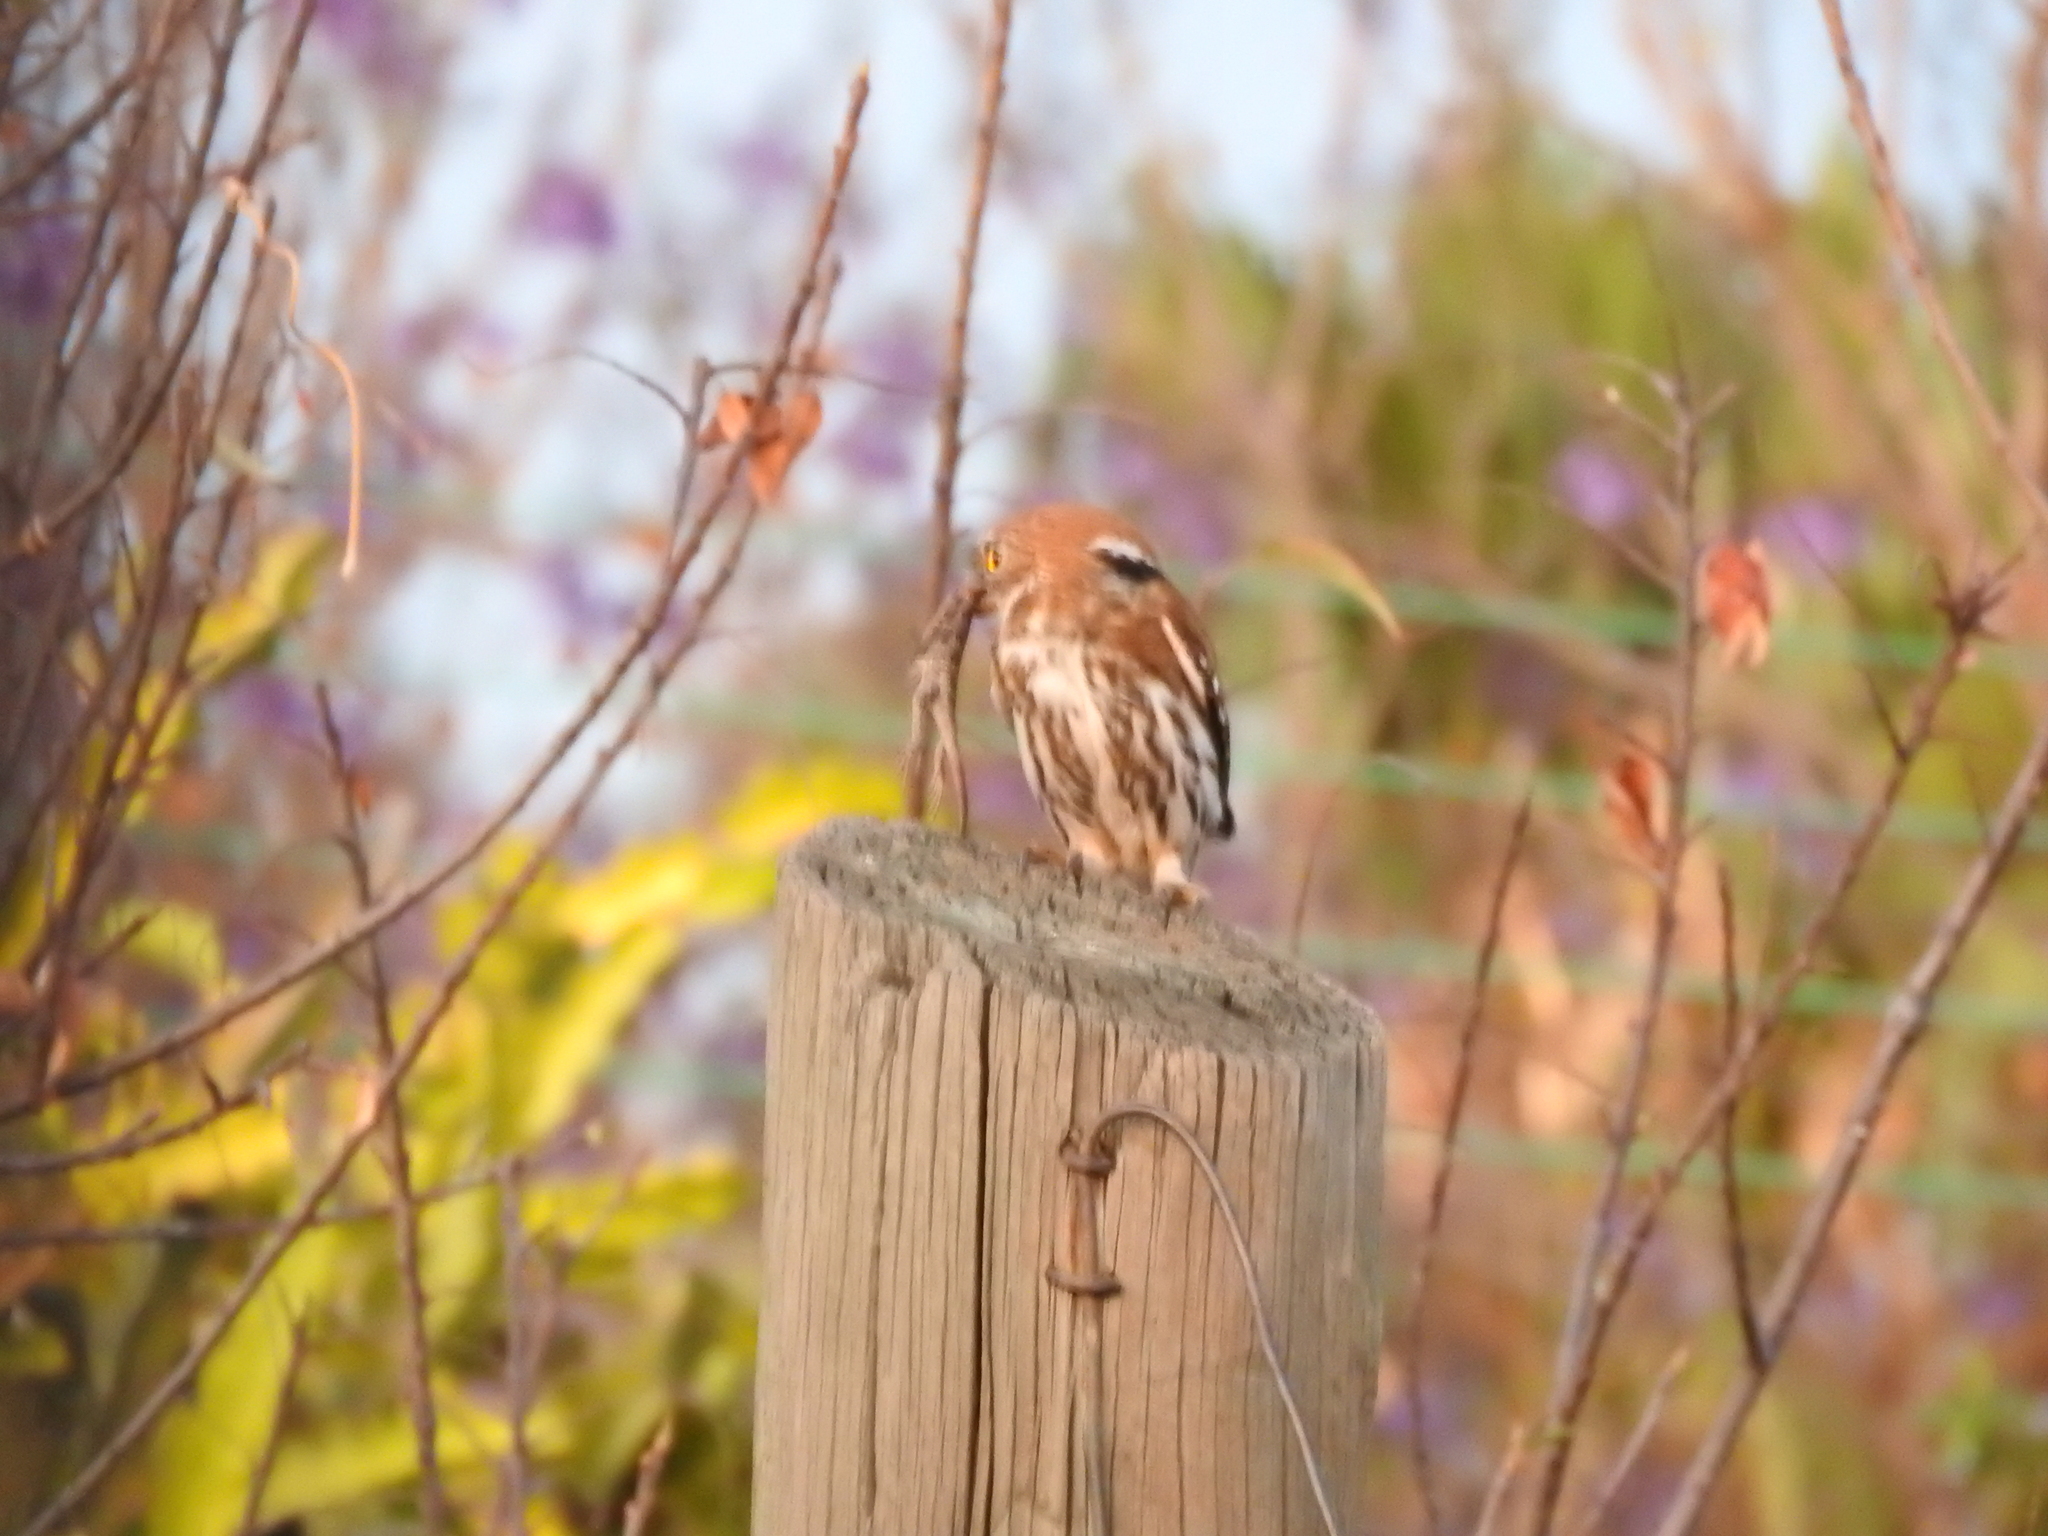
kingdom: Animalia
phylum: Chordata
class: Aves
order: Strigiformes
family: Strigidae
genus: Glaucidium
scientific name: Glaucidium brasilianum
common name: Ferruginous pygmy-owl
